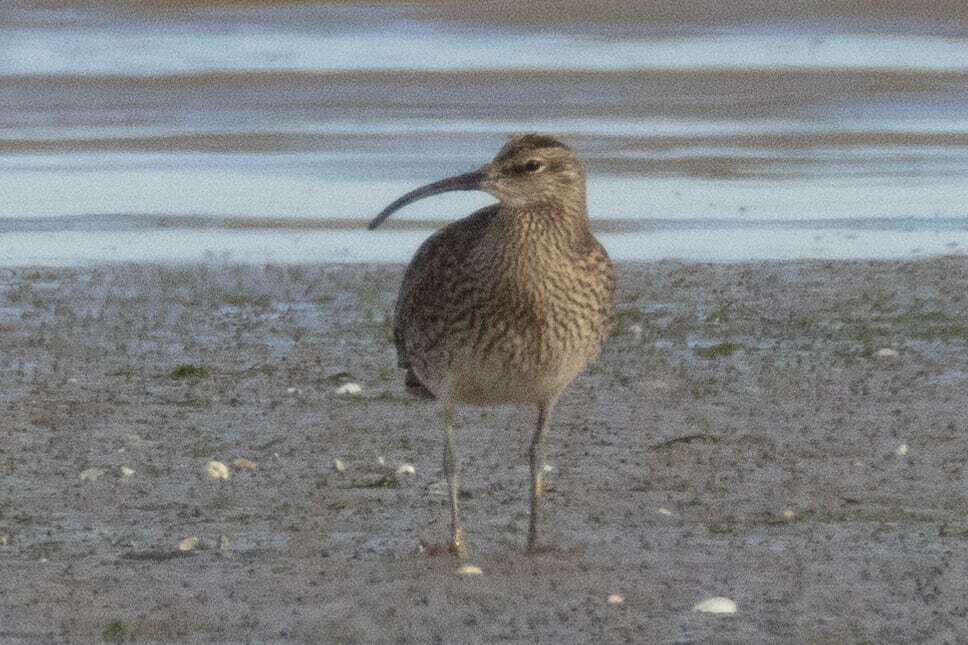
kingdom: Animalia
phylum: Chordata
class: Aves
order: Charadriiformes
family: Scolopacidae
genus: Numenius
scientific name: Numenius phaeopus
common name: Whimbrel
